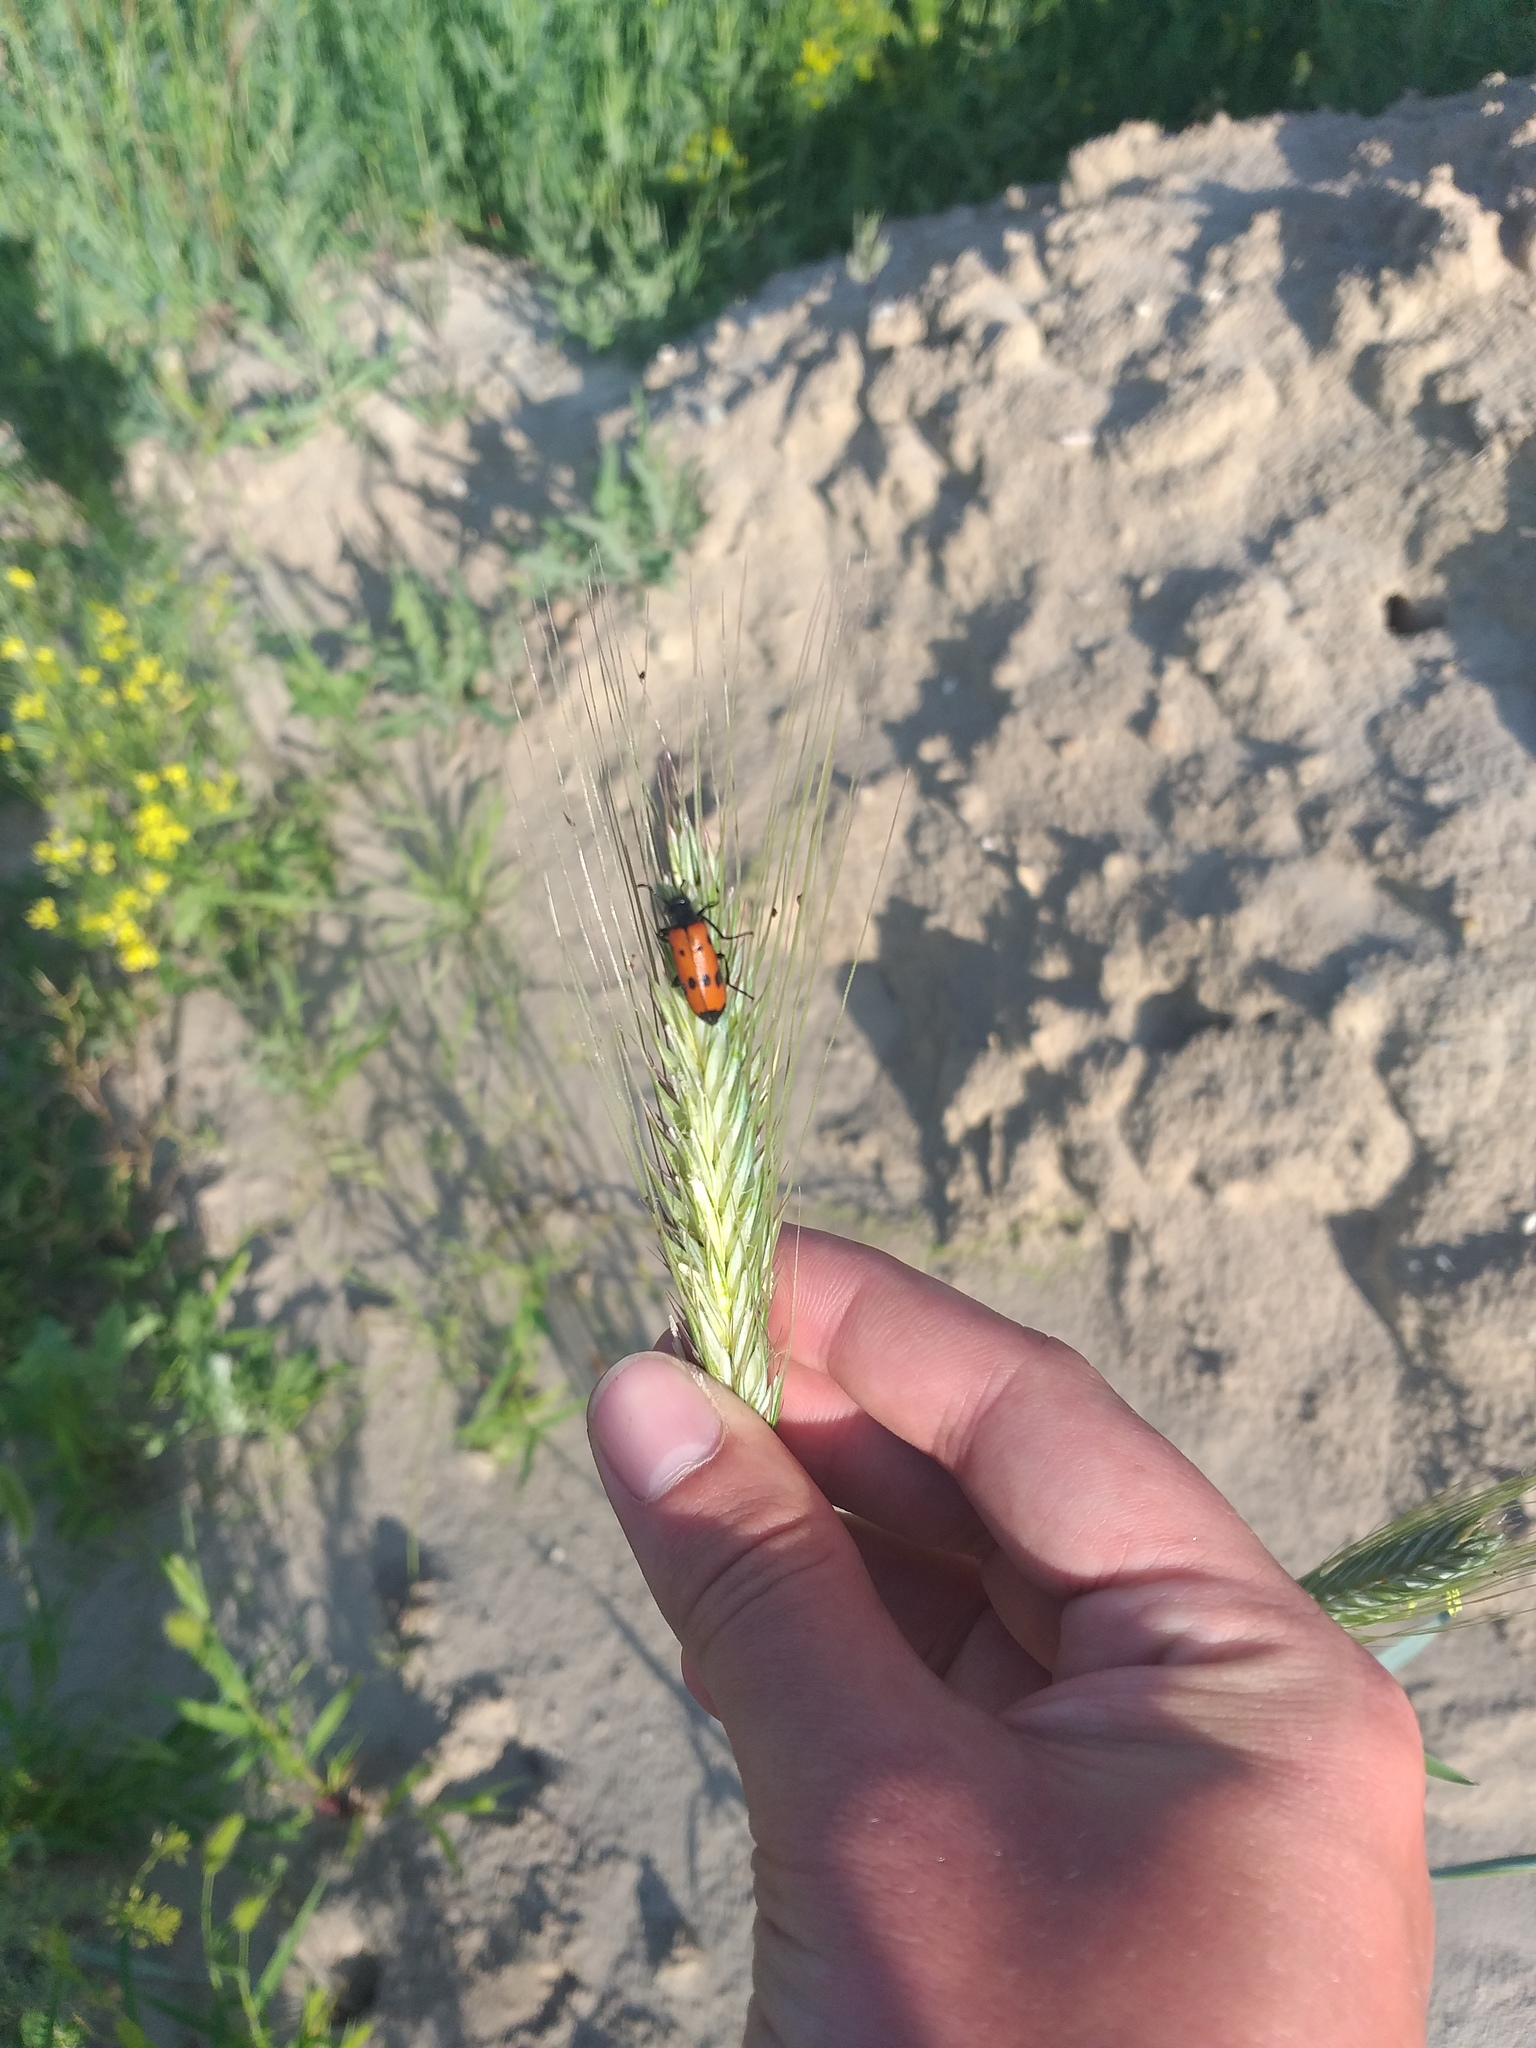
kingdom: Animalia
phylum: Arthropoda
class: Insecta
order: Coleoptera
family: Meloidae
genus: Mylabris
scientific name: Mylabris quadripunctata
